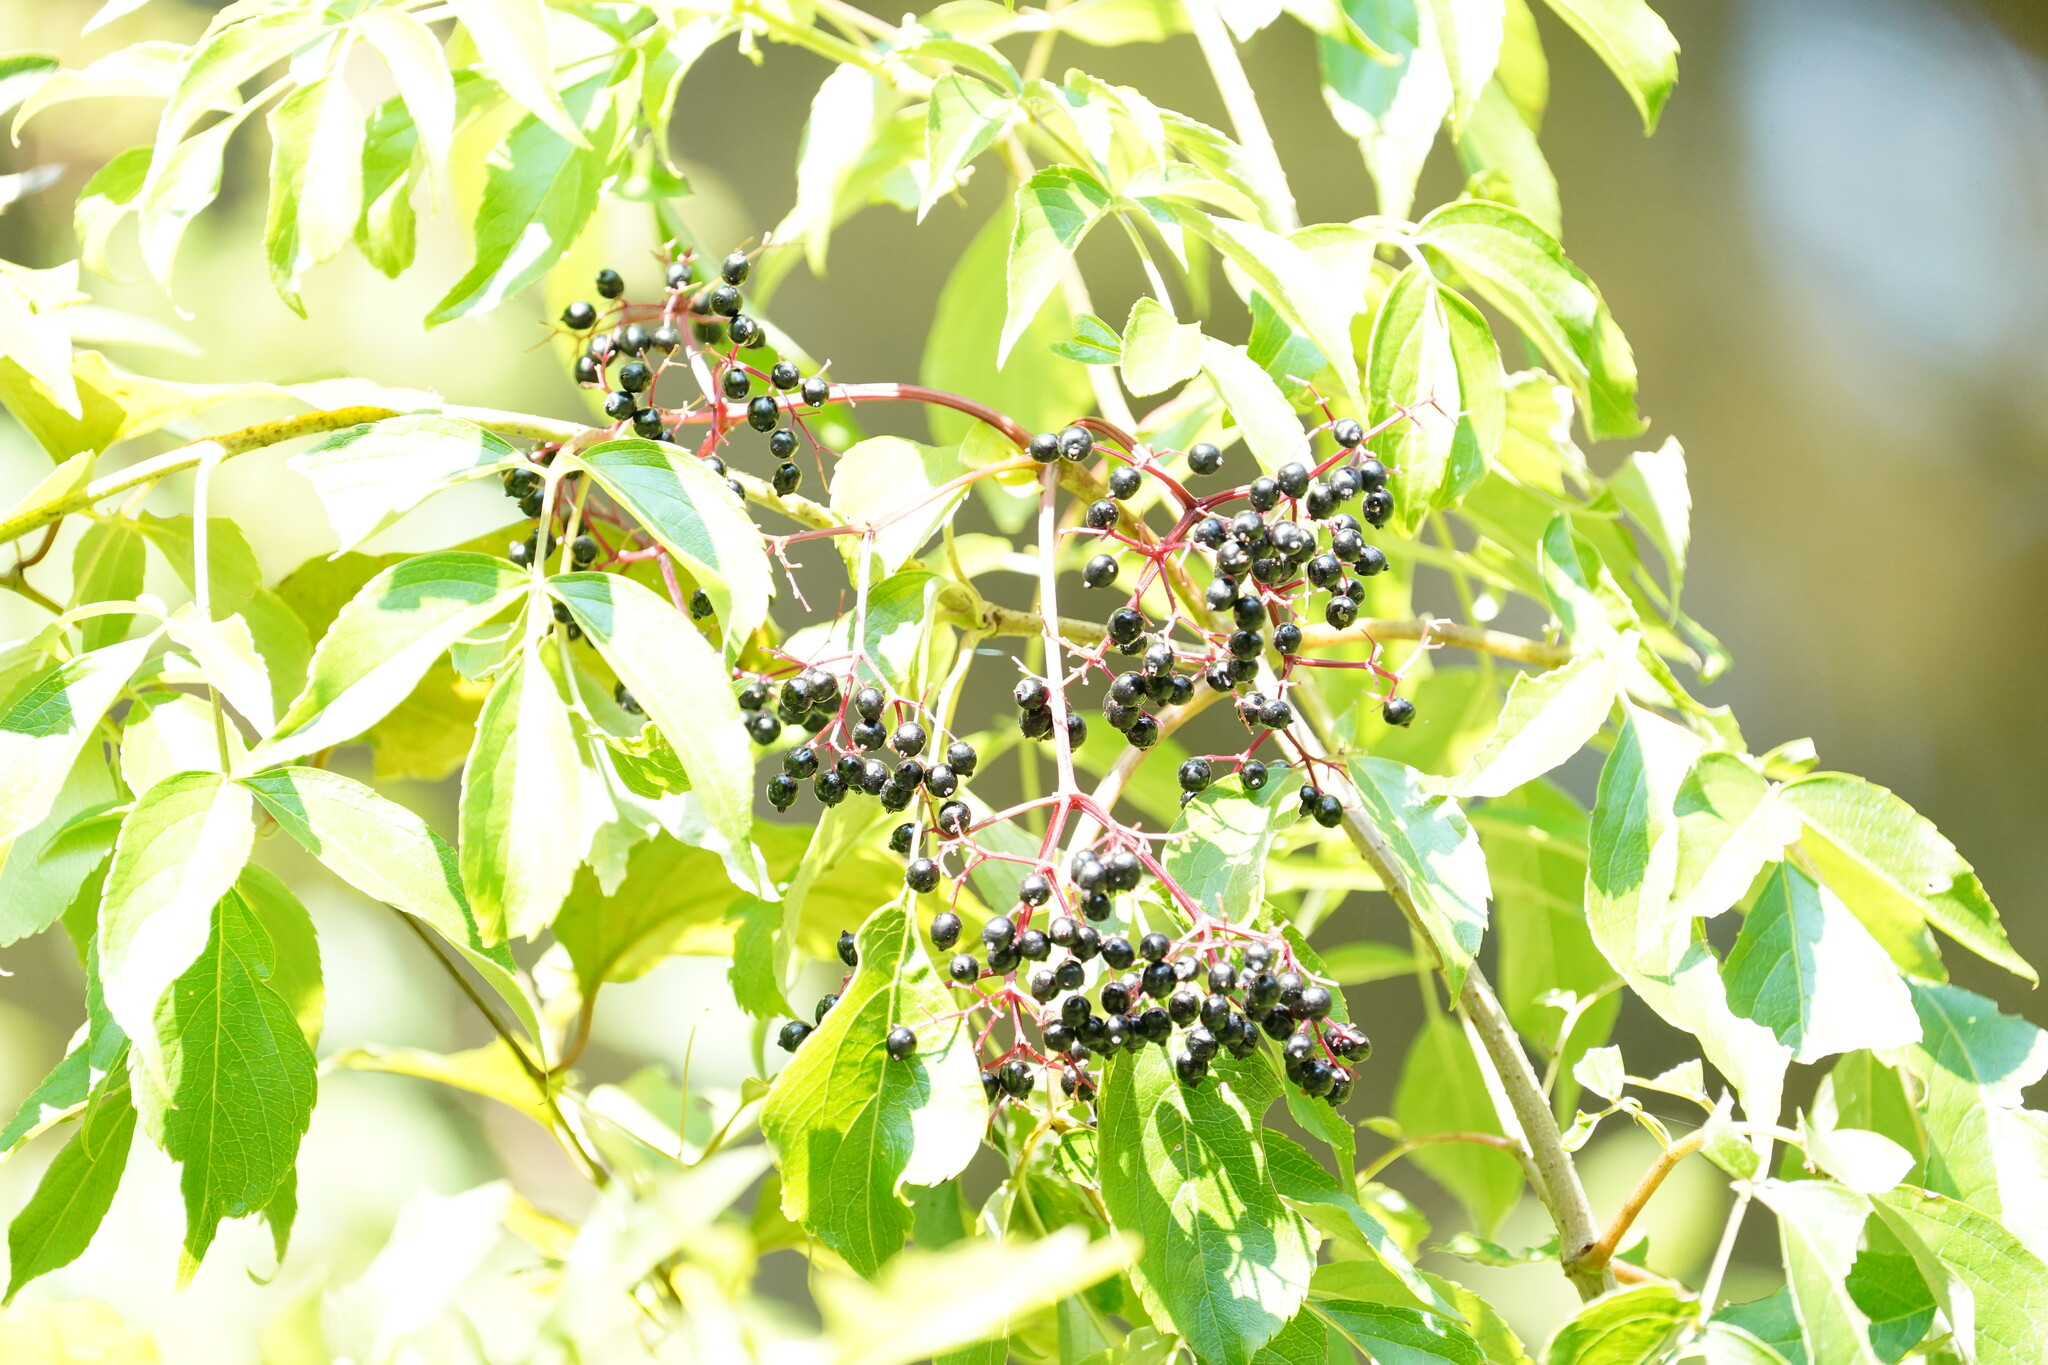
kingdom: Plantae
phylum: Tracheophyta
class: Magnoliopsida
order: Dipsacales
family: Viburnaceae
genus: Sambucus
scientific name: Sambucus canadensis
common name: American elder
